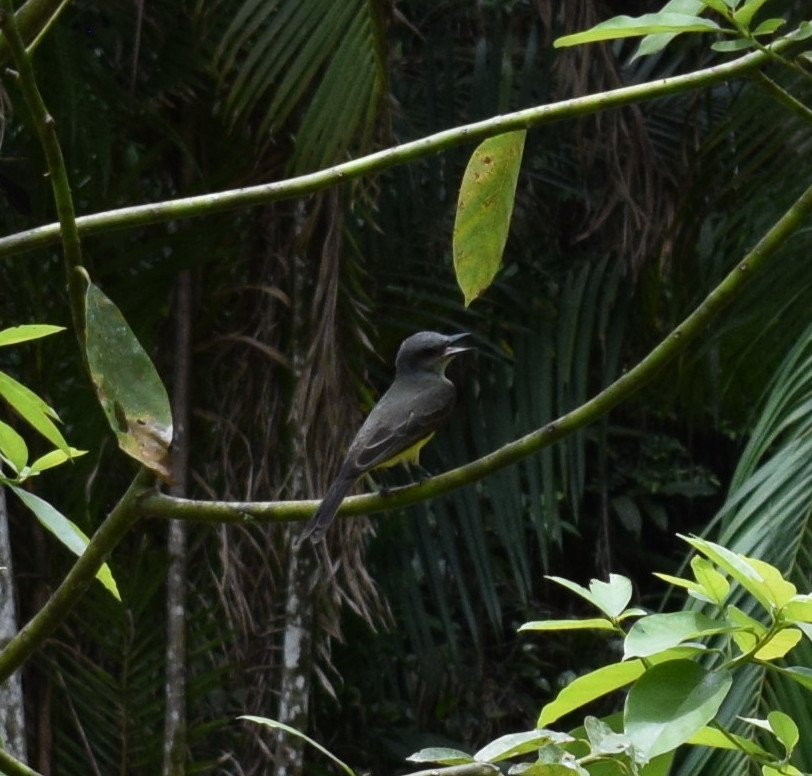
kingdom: Animalia
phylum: Chordata
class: Aves
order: Passeriformes
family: Tyrannidae
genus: Tyrannus
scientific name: Tyrannus melancholicus
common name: Tropical kingbird
